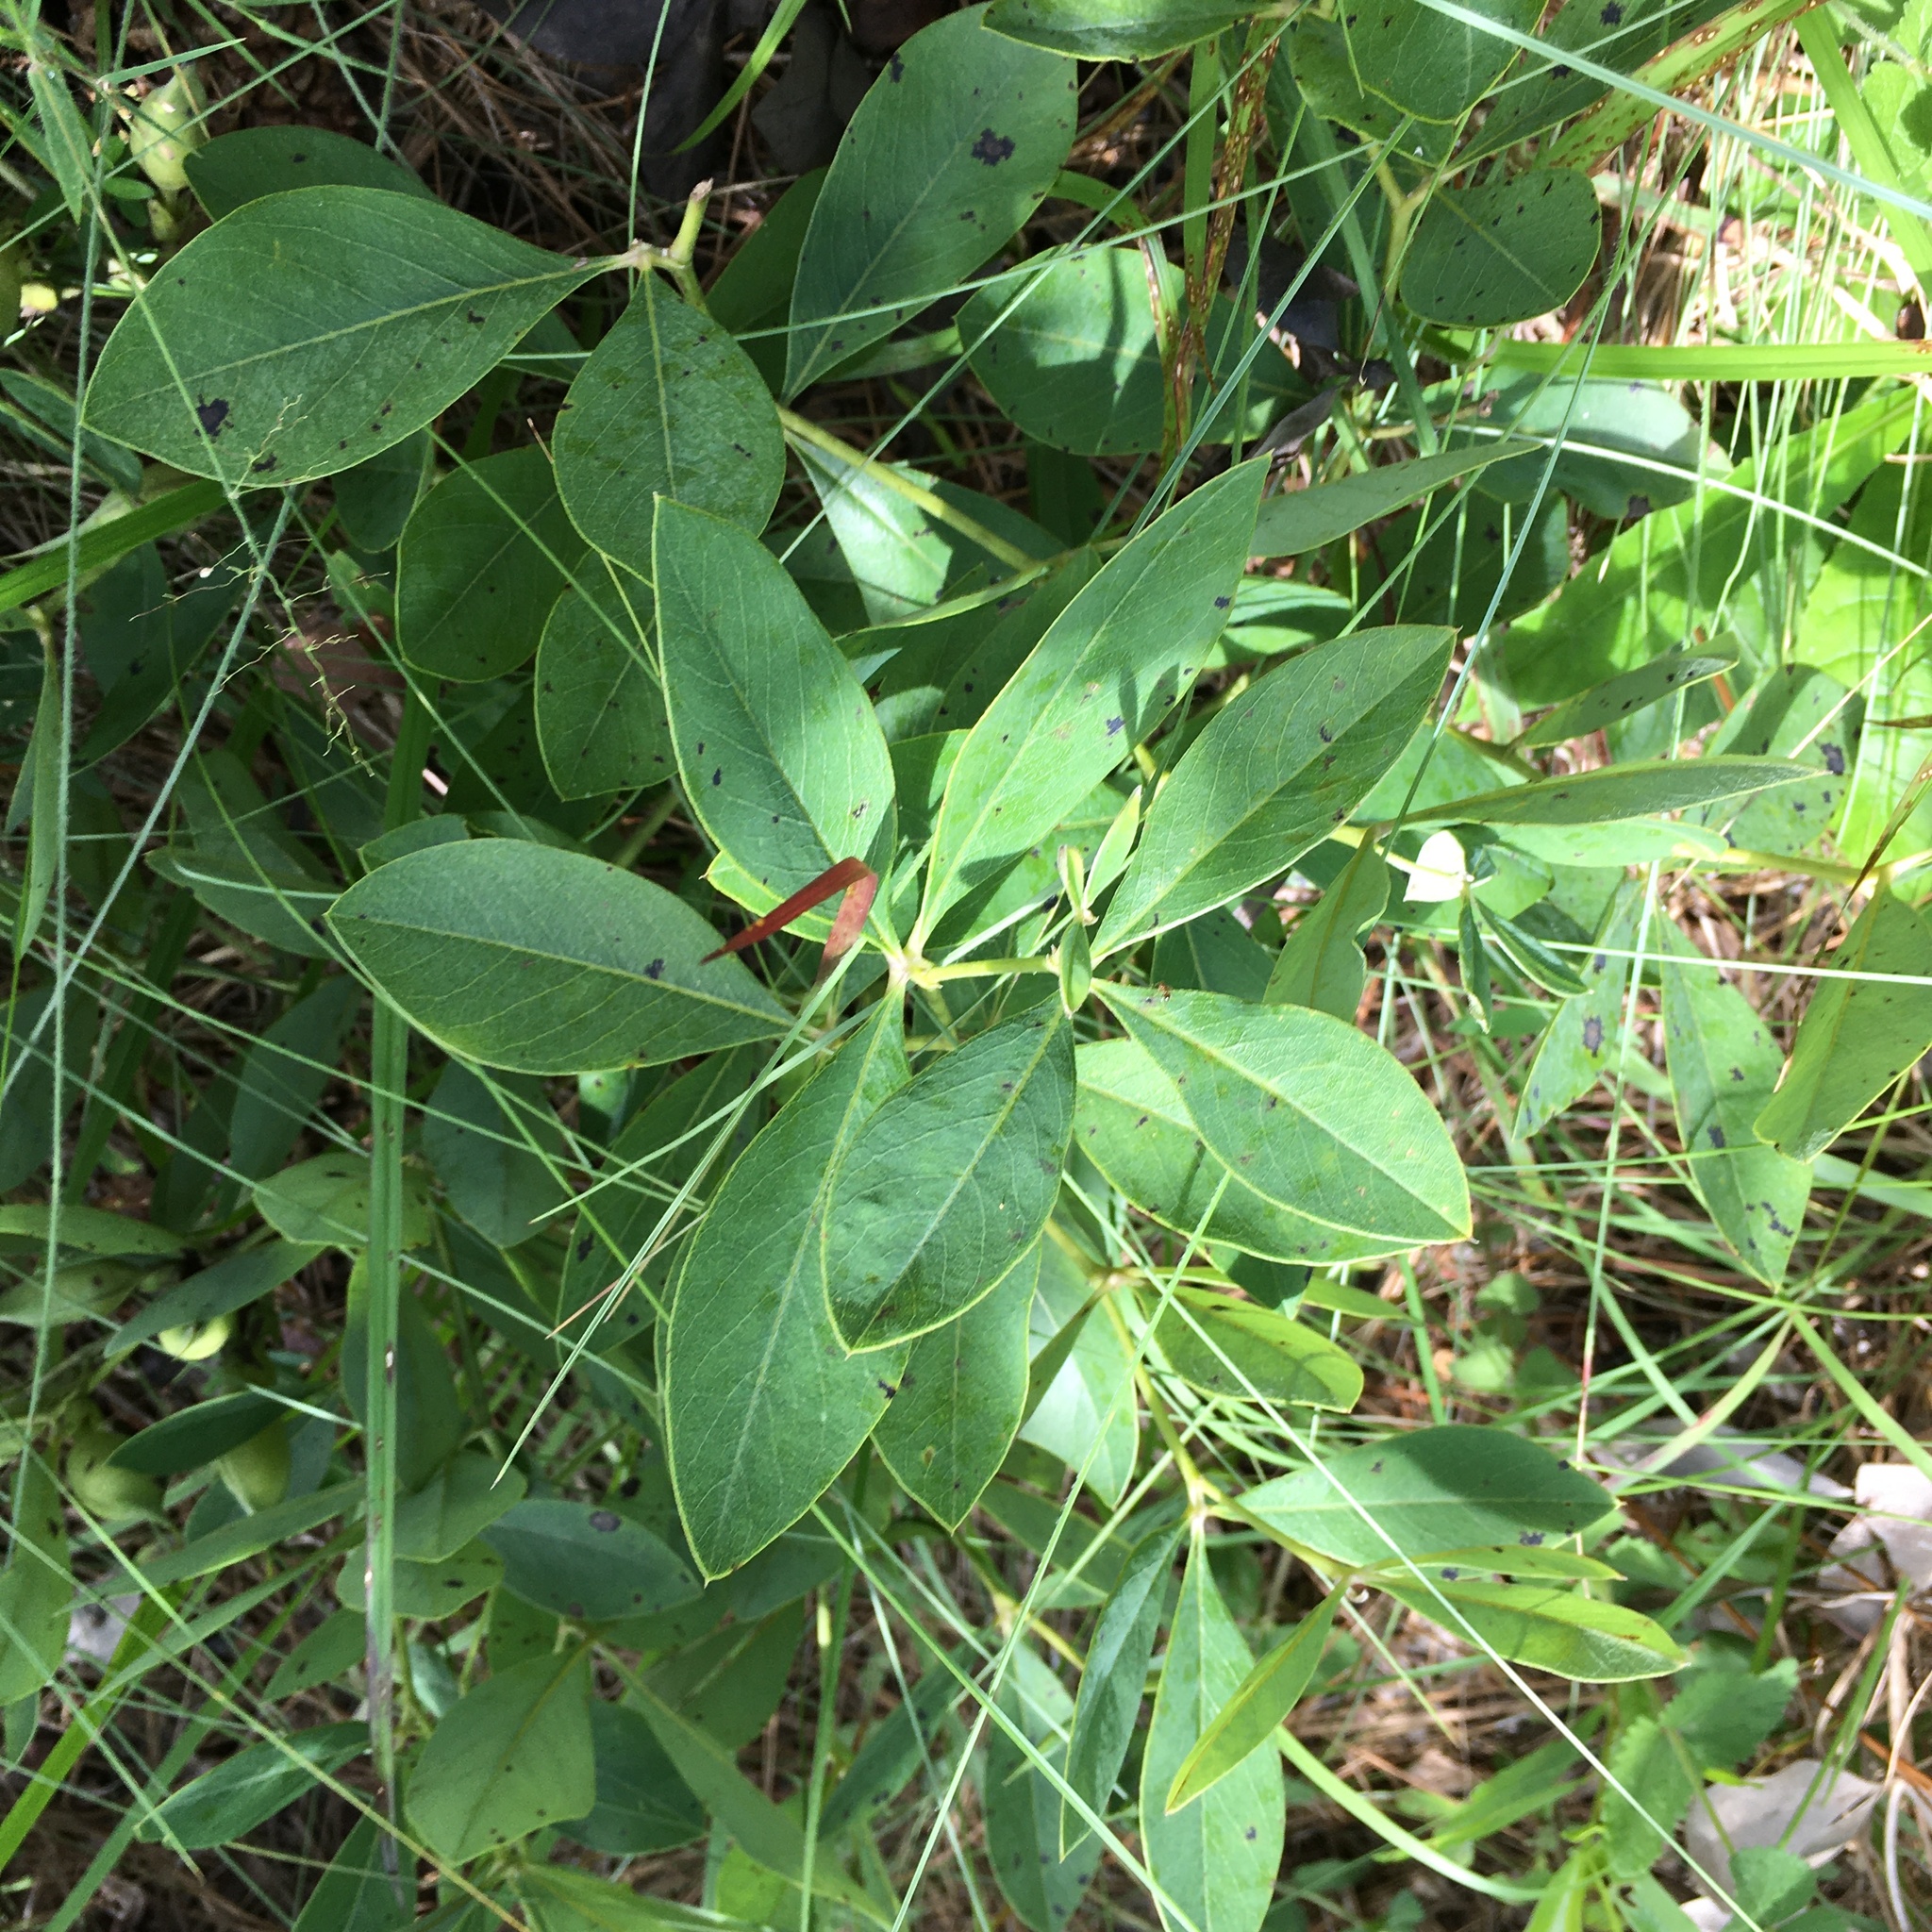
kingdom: Plantae
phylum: Tracheophyta
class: Magnoliopsida
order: Fabales
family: Fabaceae
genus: Baptisia
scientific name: Baptisia cinerea
